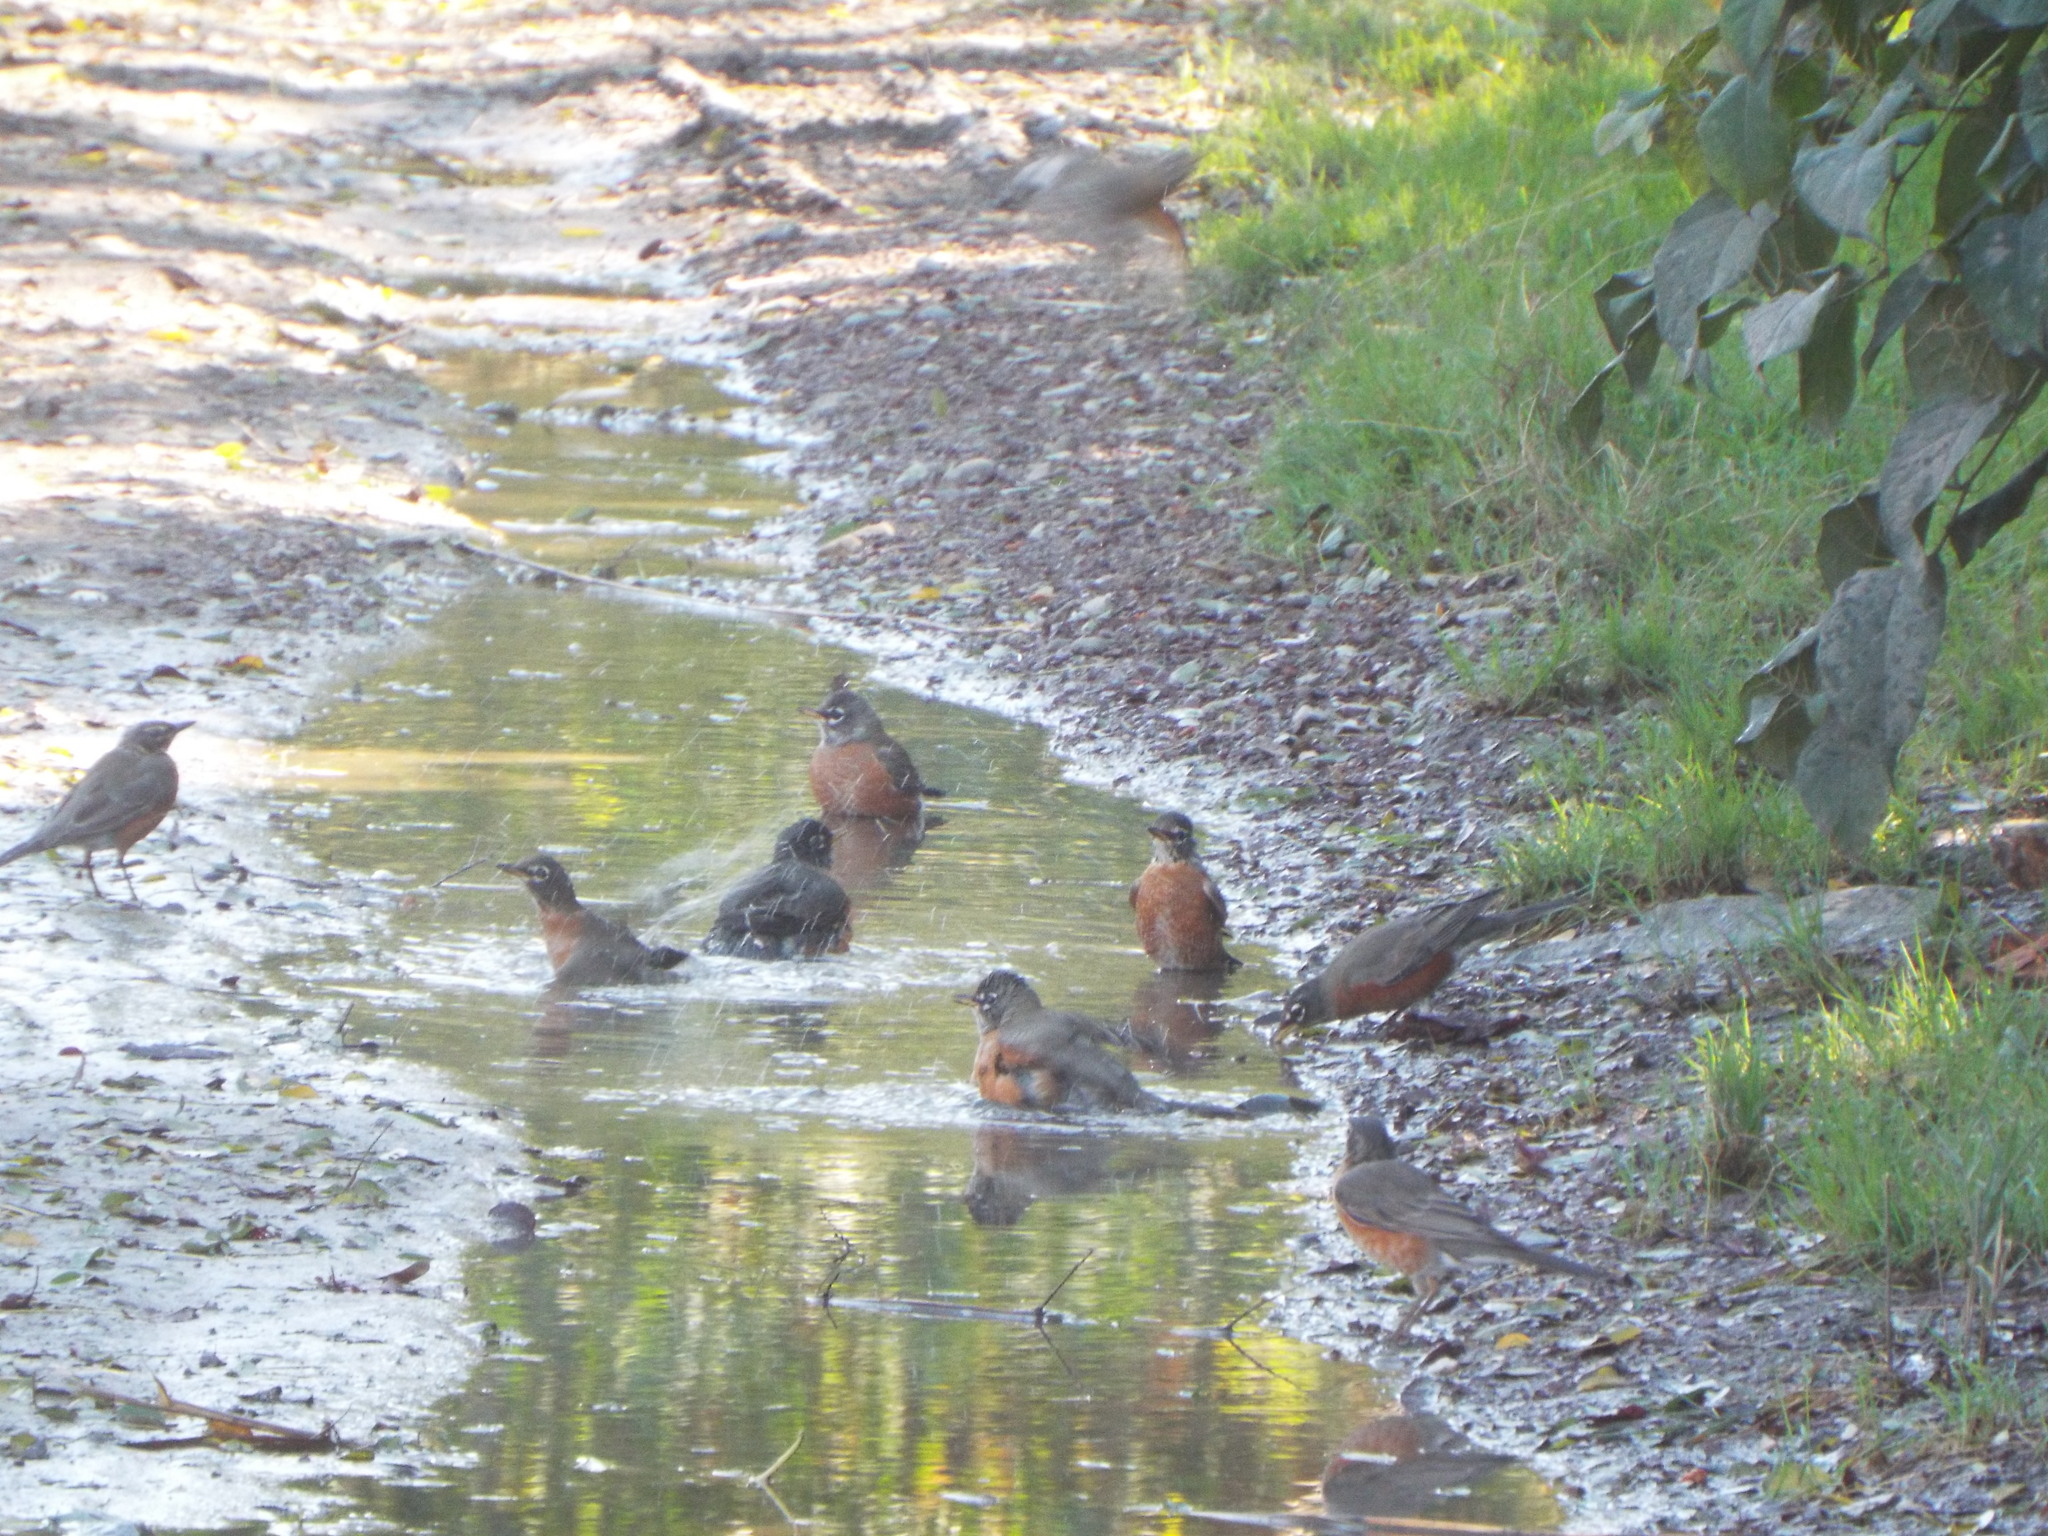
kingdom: Animalia
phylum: Chordata
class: Aves
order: Passeriformes
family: Turdidae
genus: Turdus
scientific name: Turdus migratorius
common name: American robin
